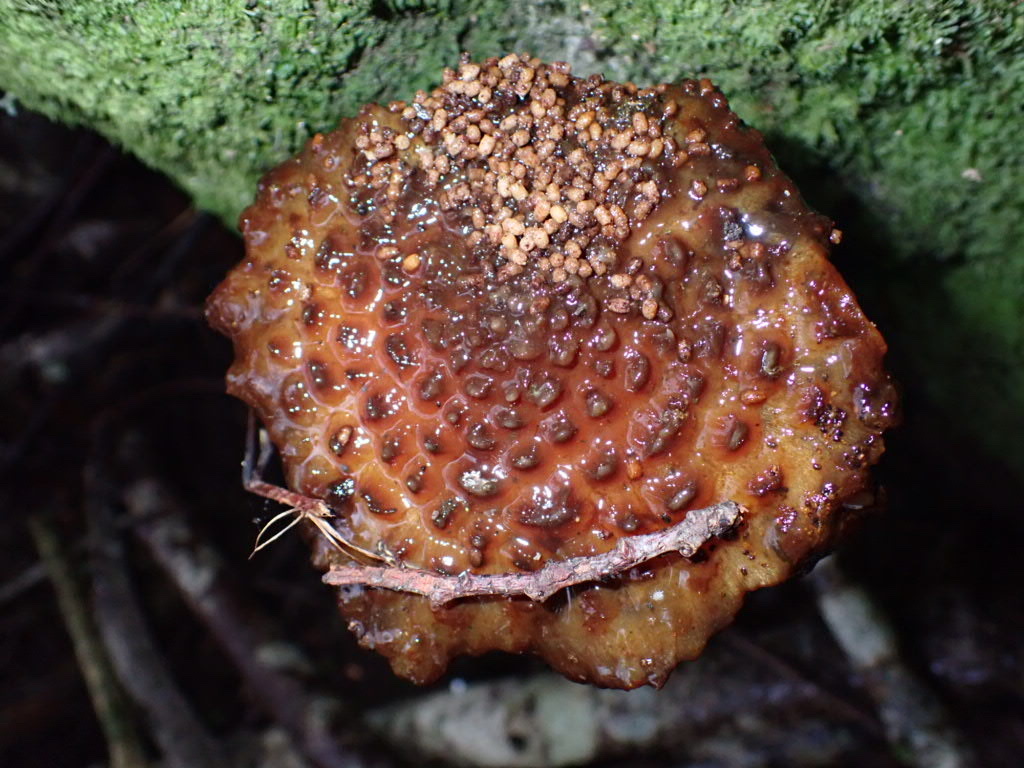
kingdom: Fungi
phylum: Basidiomycota
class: Agaricomycetes
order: Agaricales
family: Strophariaceae
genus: Hypholoma
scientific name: Hypholoma brunneum
